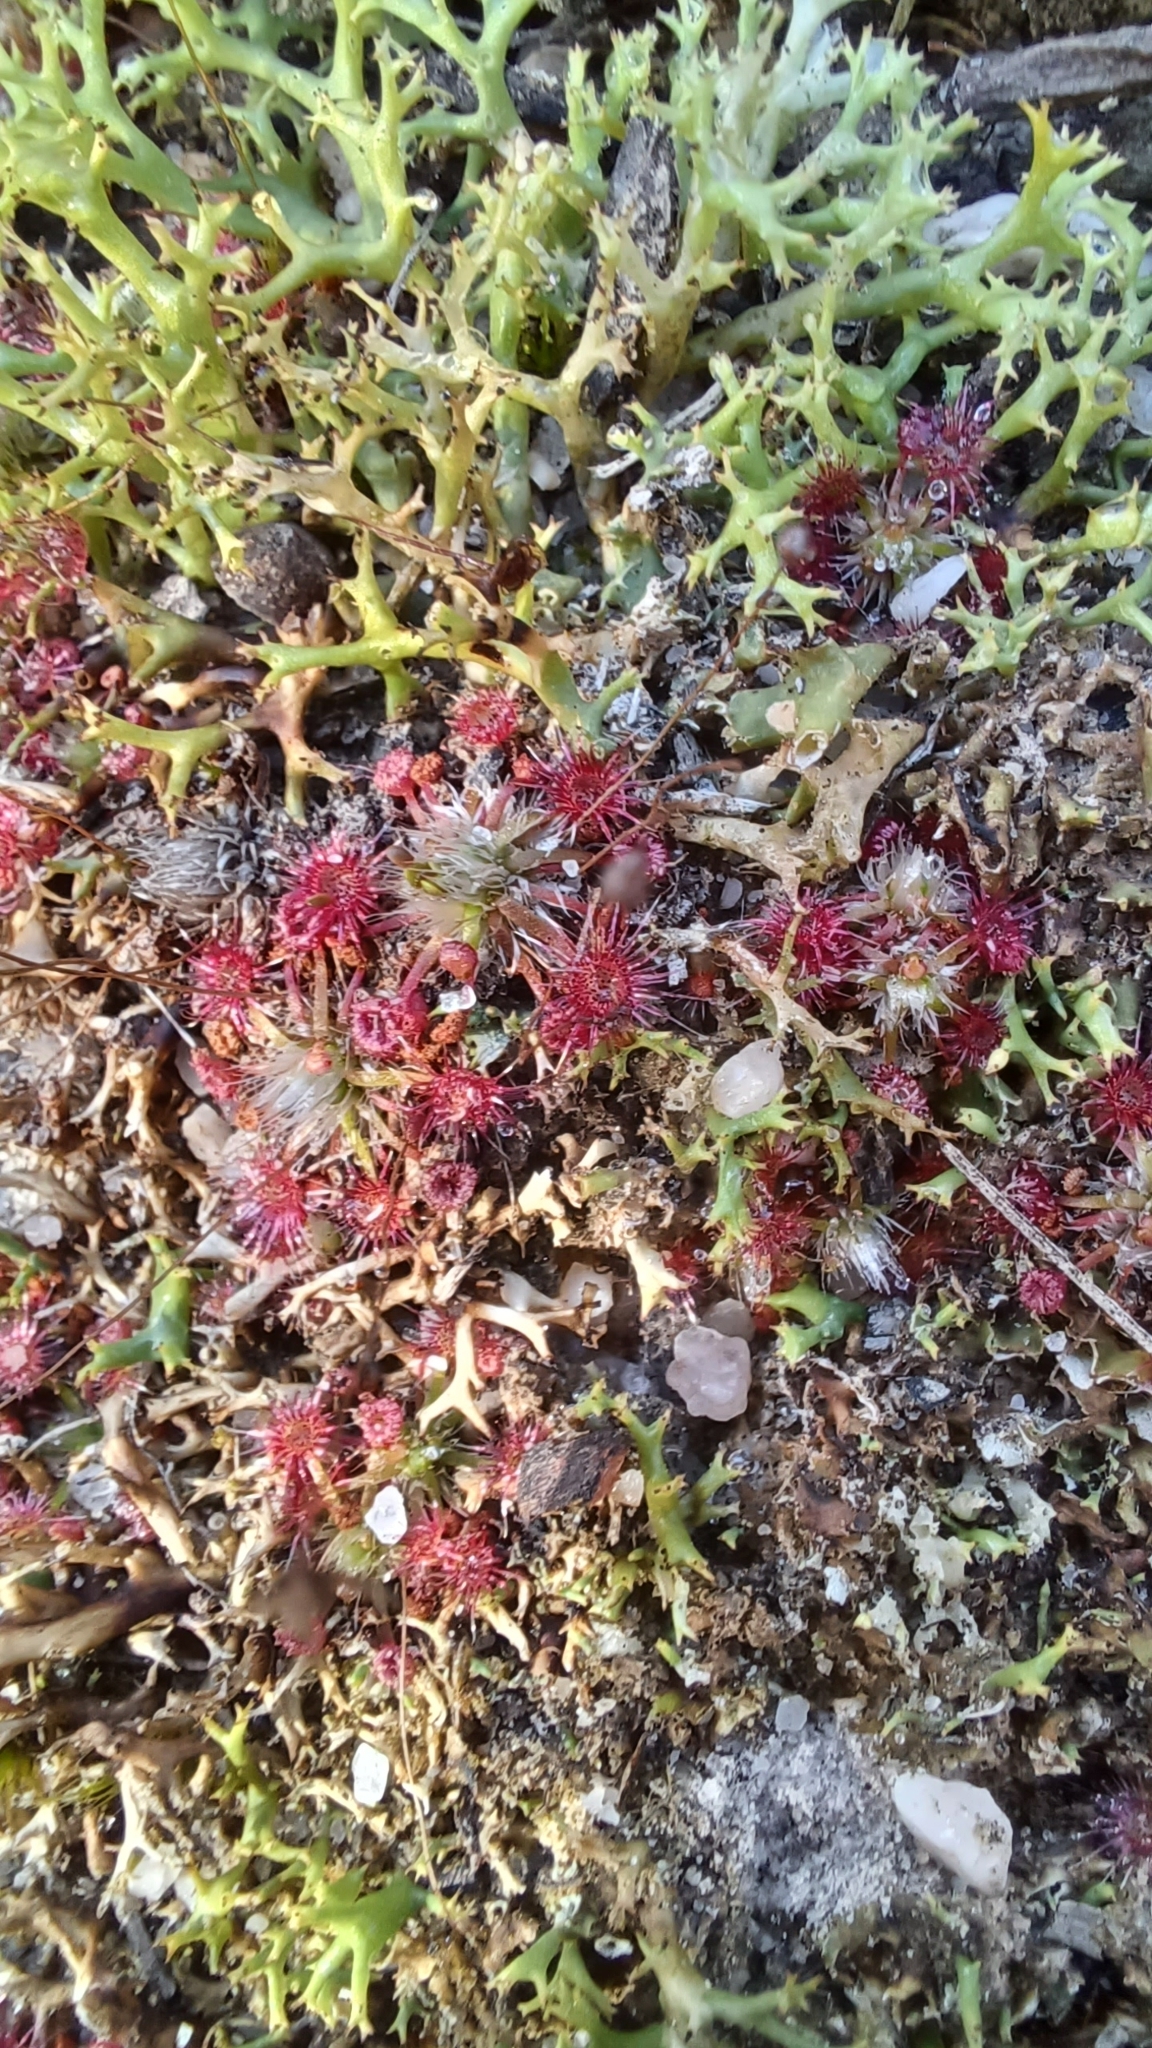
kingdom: Plantae
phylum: Tracheophyta
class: Magnoliopsida
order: Caryophyllales
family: Droseraceae
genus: Drosera
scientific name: Drosera pygmaea
